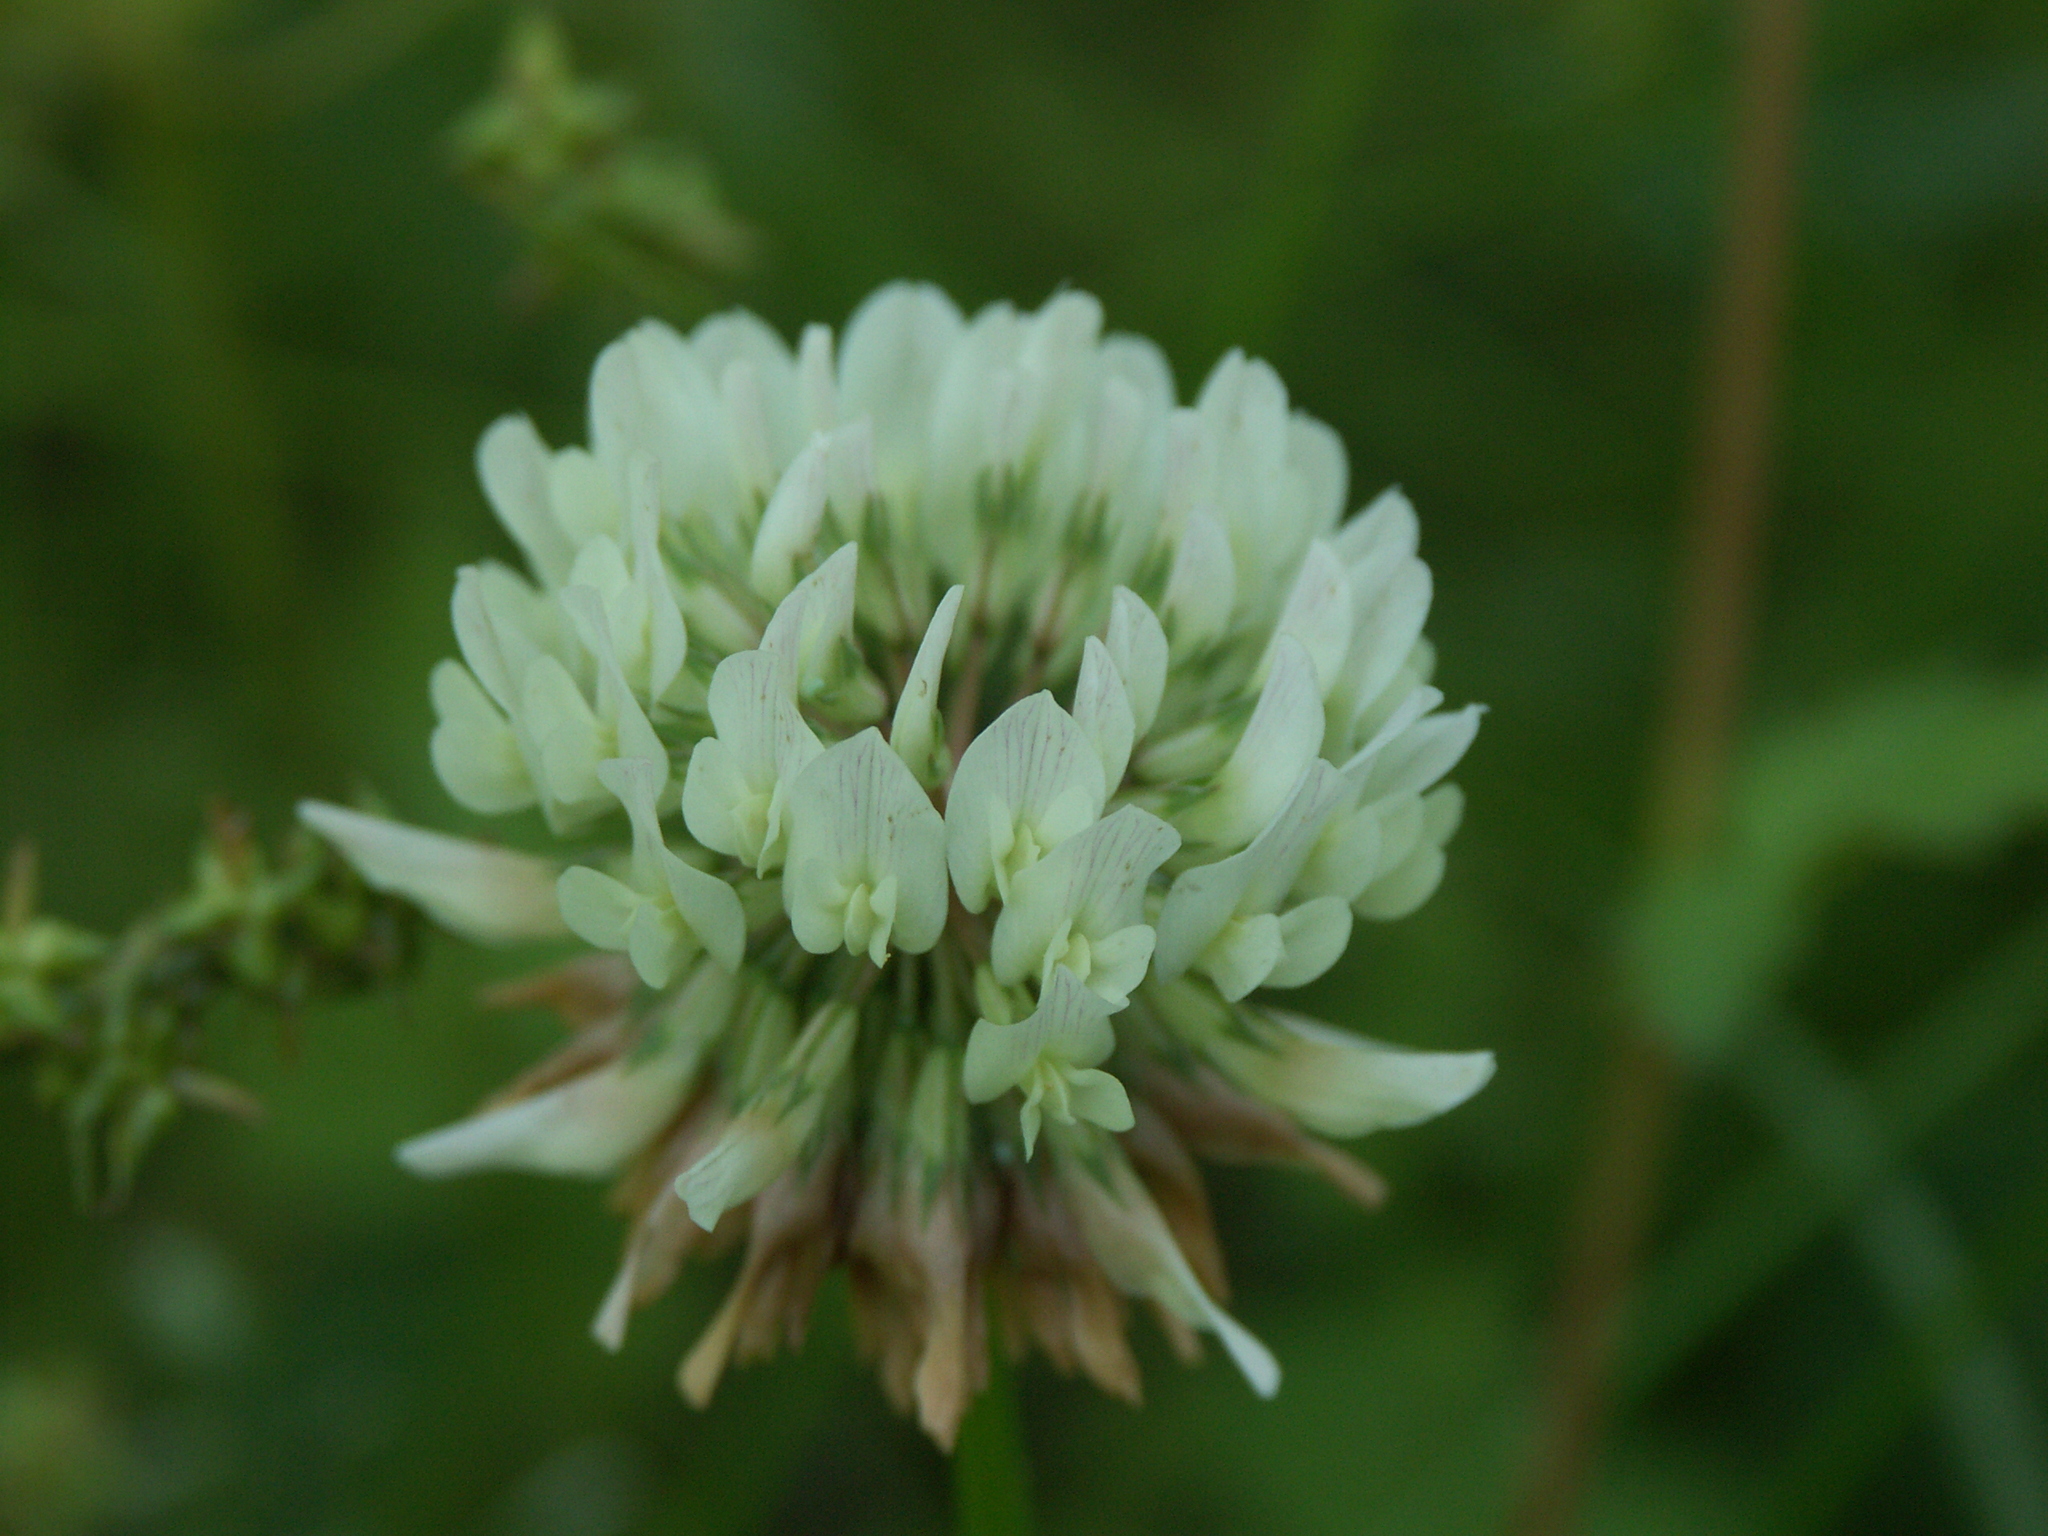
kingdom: Plantae
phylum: Tracheophyta
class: Magnoliopsida
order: Fabales
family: Fabaceae
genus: Trifolium
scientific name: Trifolium repens
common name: White clover
